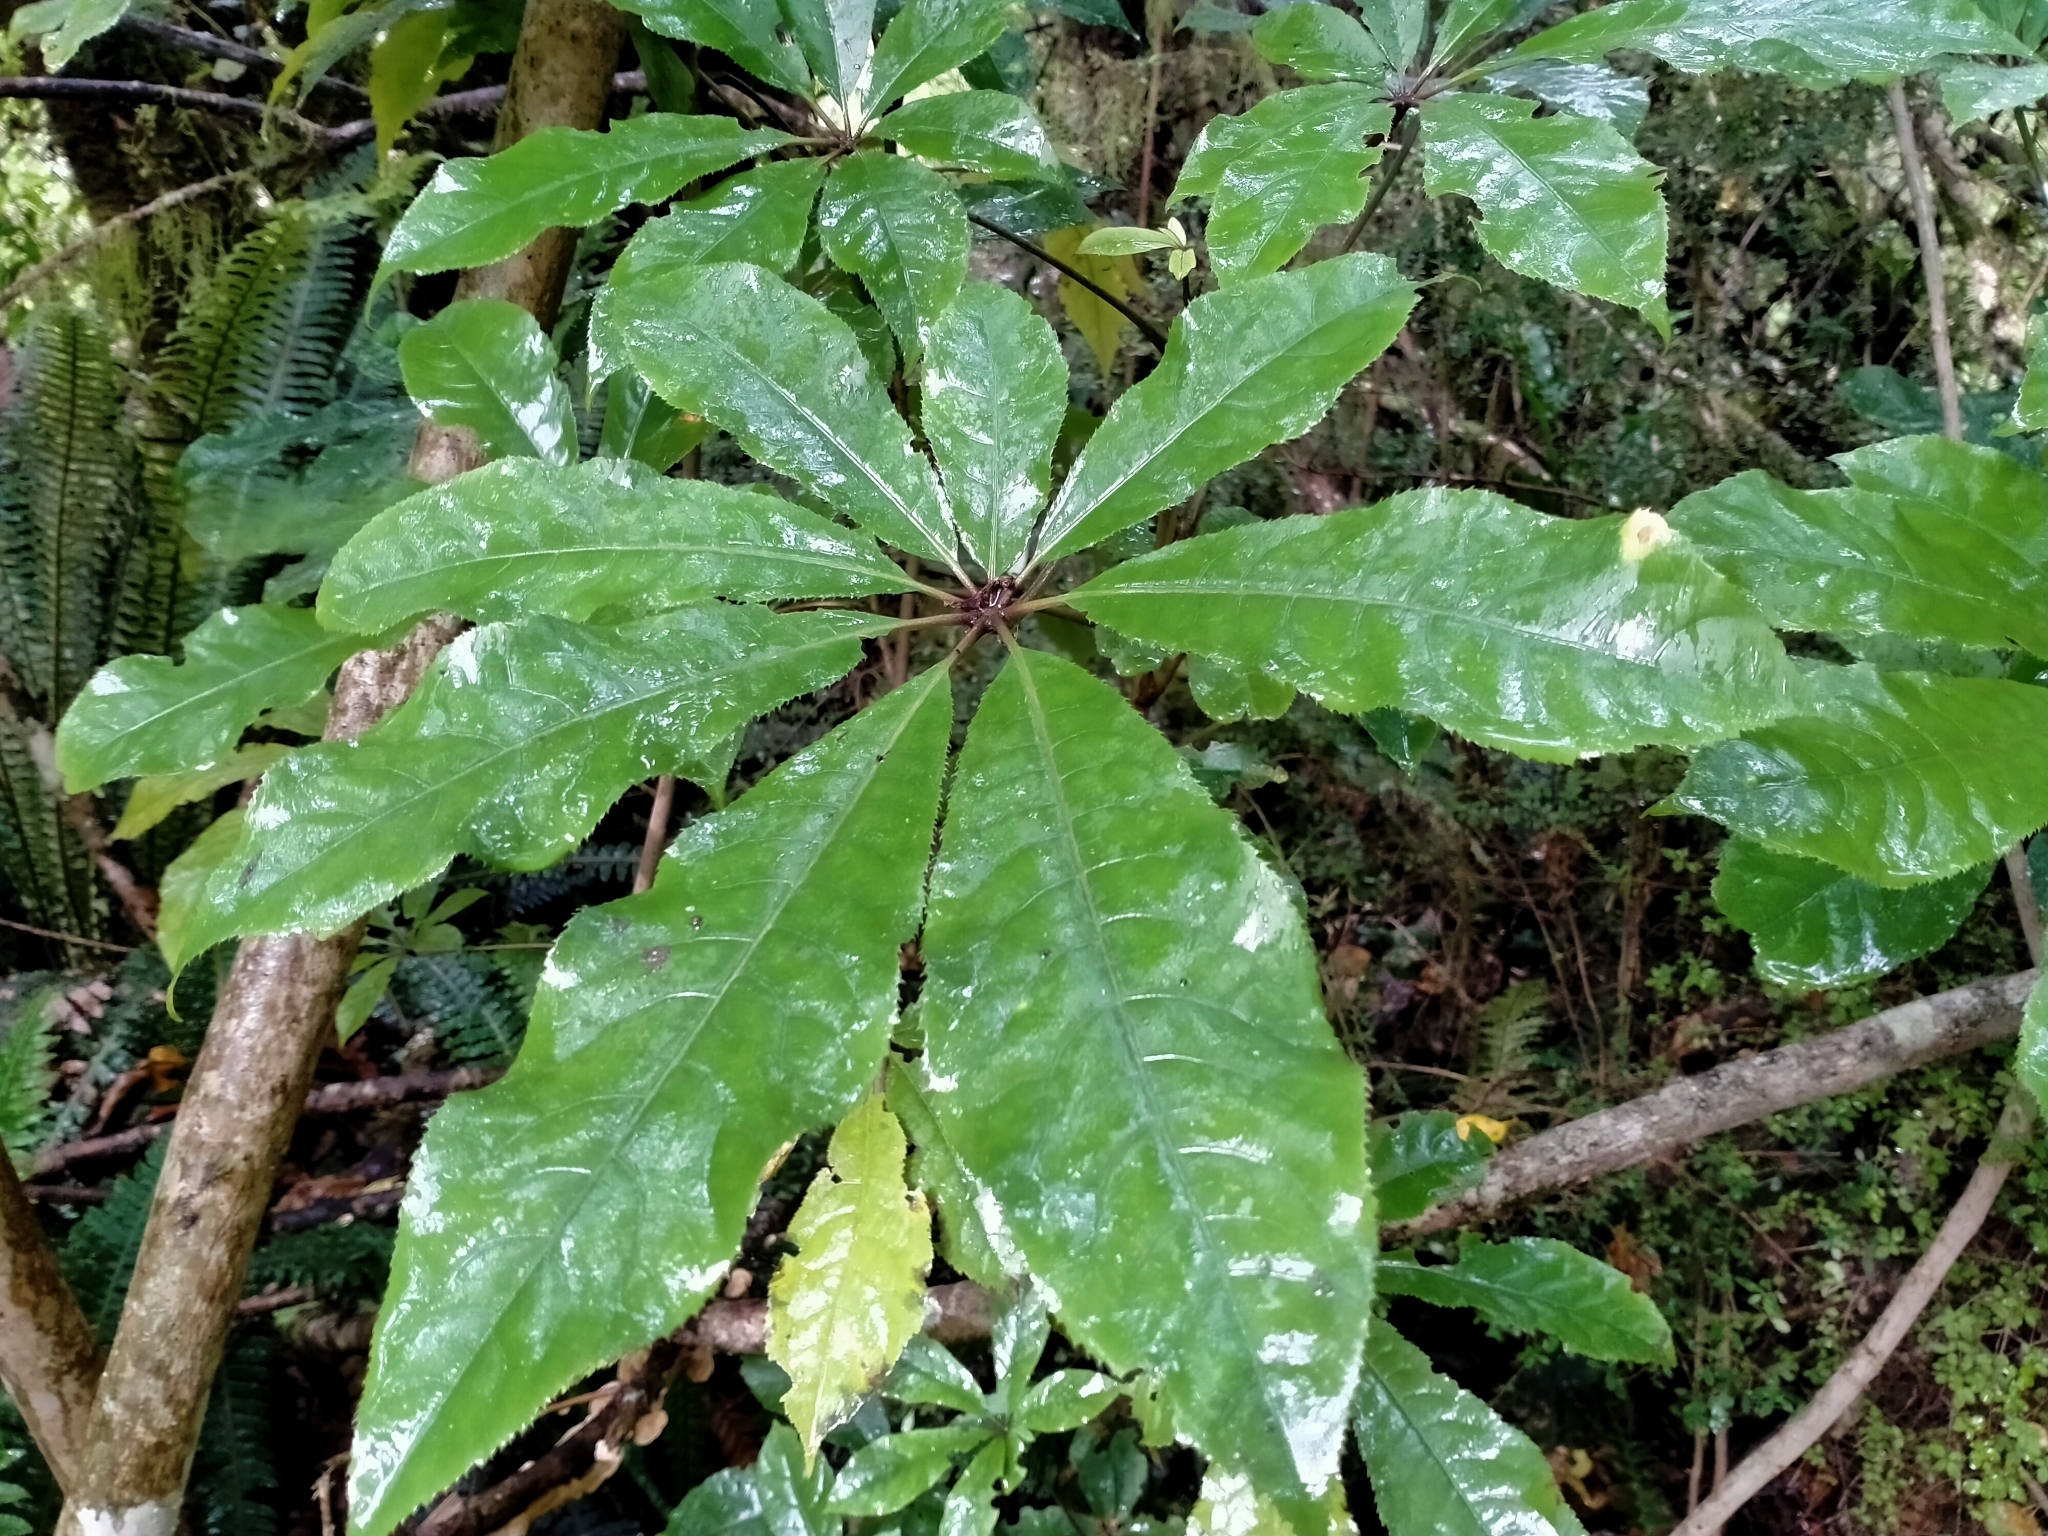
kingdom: Plantae
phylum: Tracheophyta
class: Magnoliopsida
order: Apiales
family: Araliaceae
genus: Schefflera
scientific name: Schefflera digitata
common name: Pate
